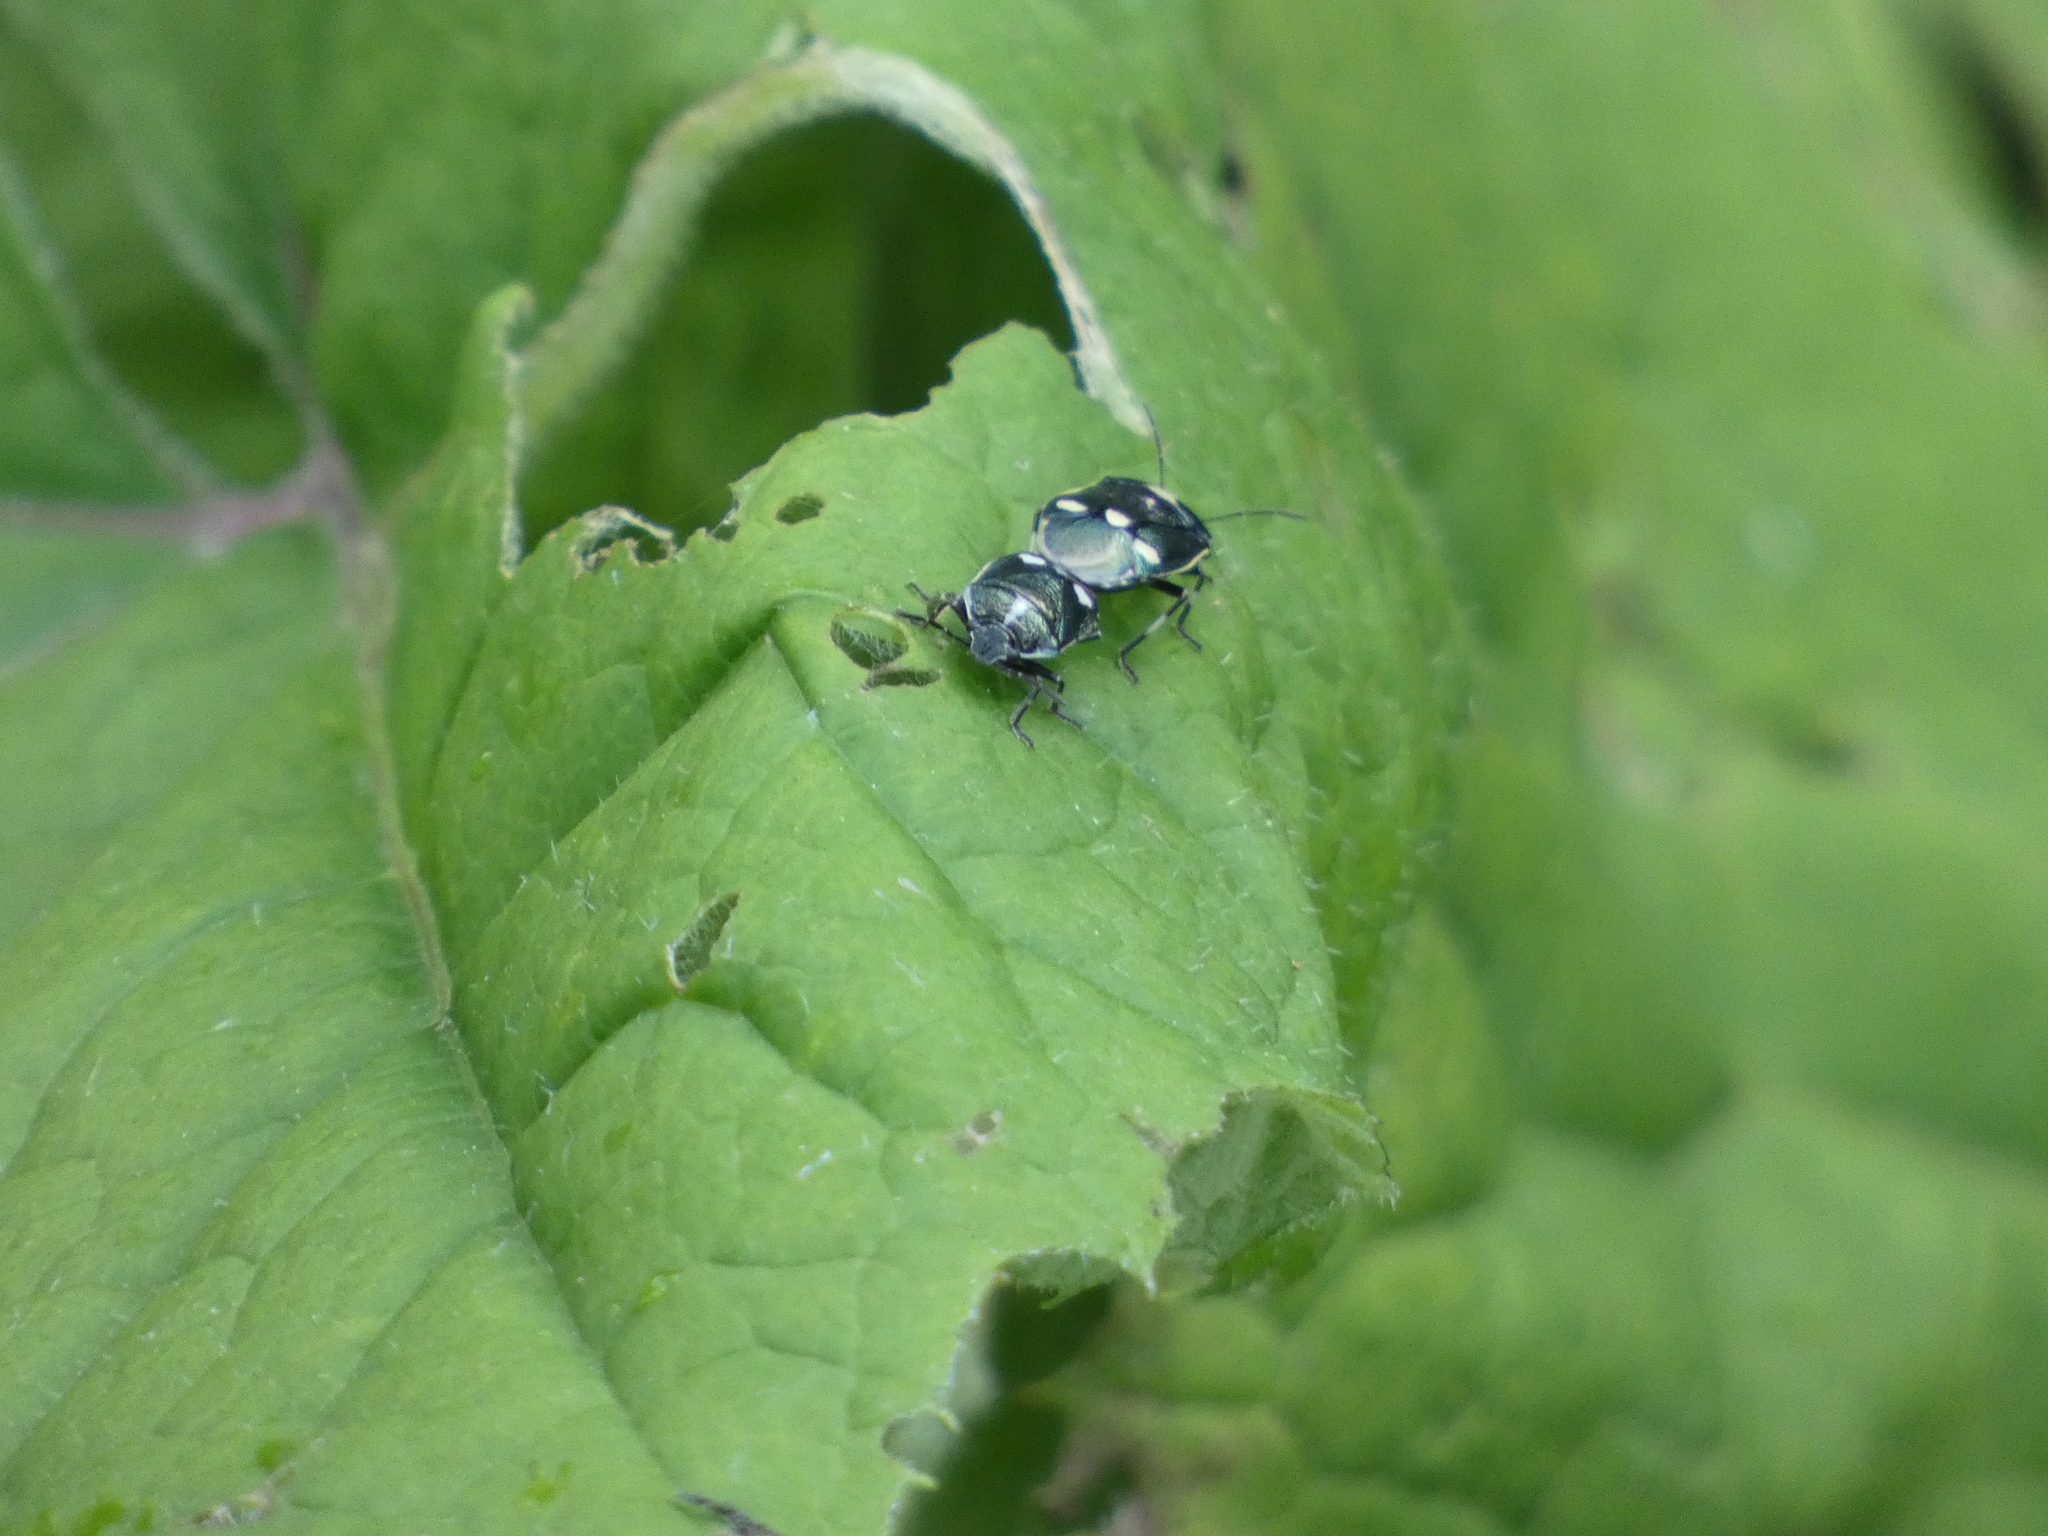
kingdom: Animalia
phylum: Arthropoda
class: Insecta
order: Hemiptera
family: Pentatomidae
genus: Eurydema
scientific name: Eurydema oleracea
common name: Cabbage bug
